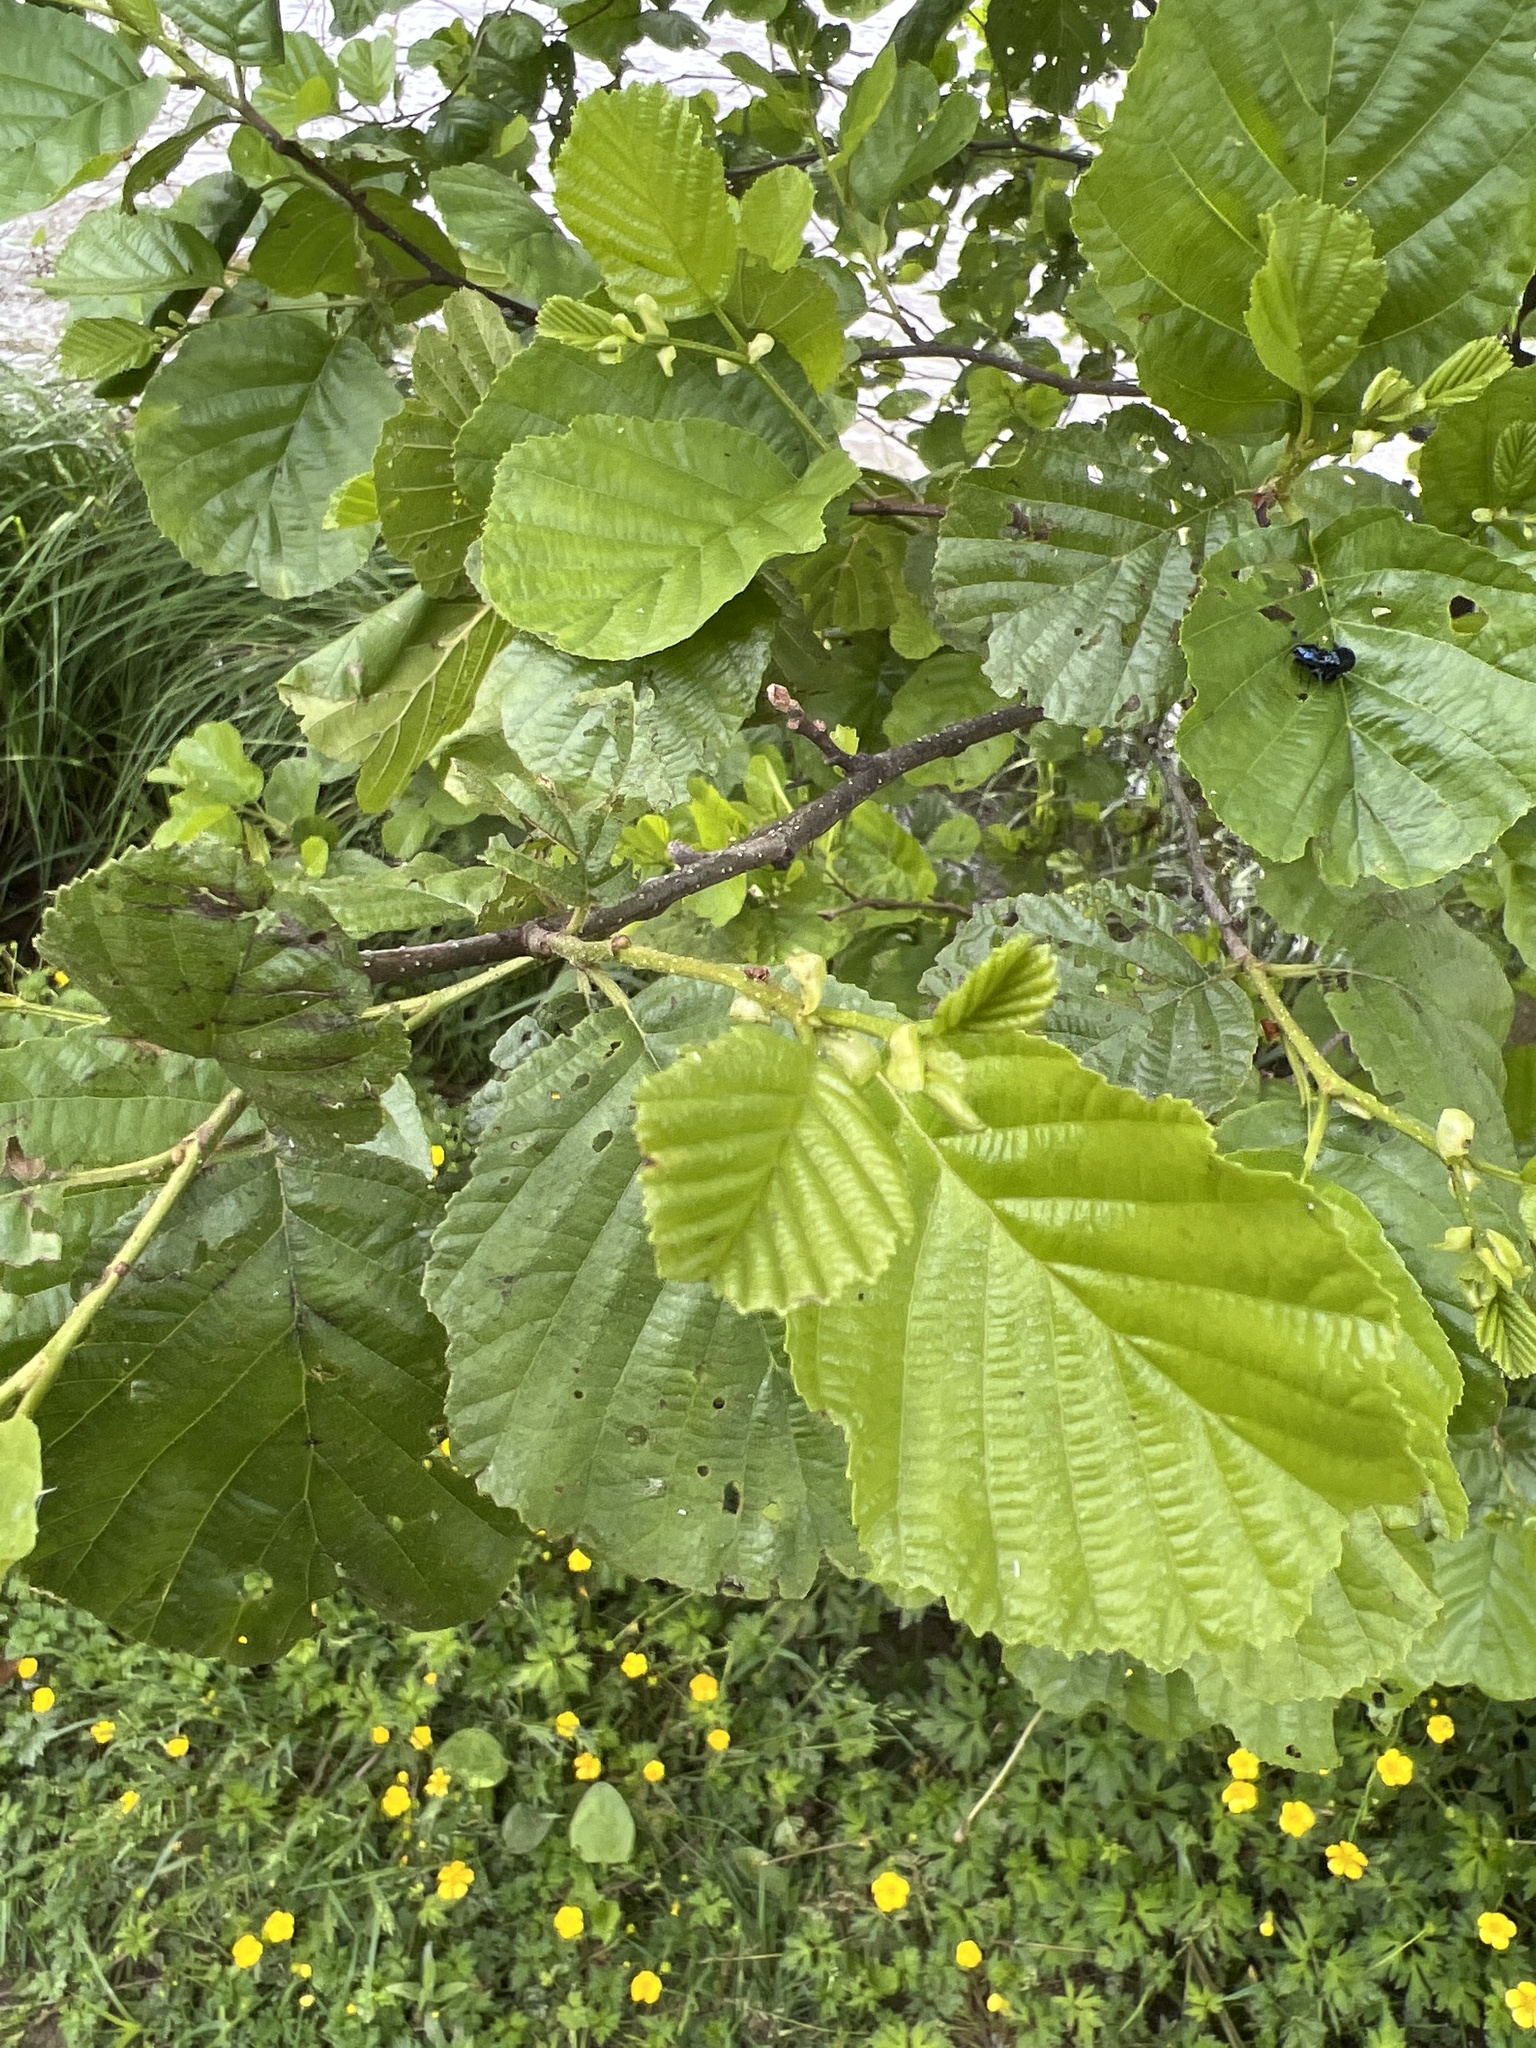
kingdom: Plantae
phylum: Tracheophyta
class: Magnoliopsida
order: Fagales
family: Betulaceae
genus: Alnus
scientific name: Alnus glutinosa
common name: Black alder
